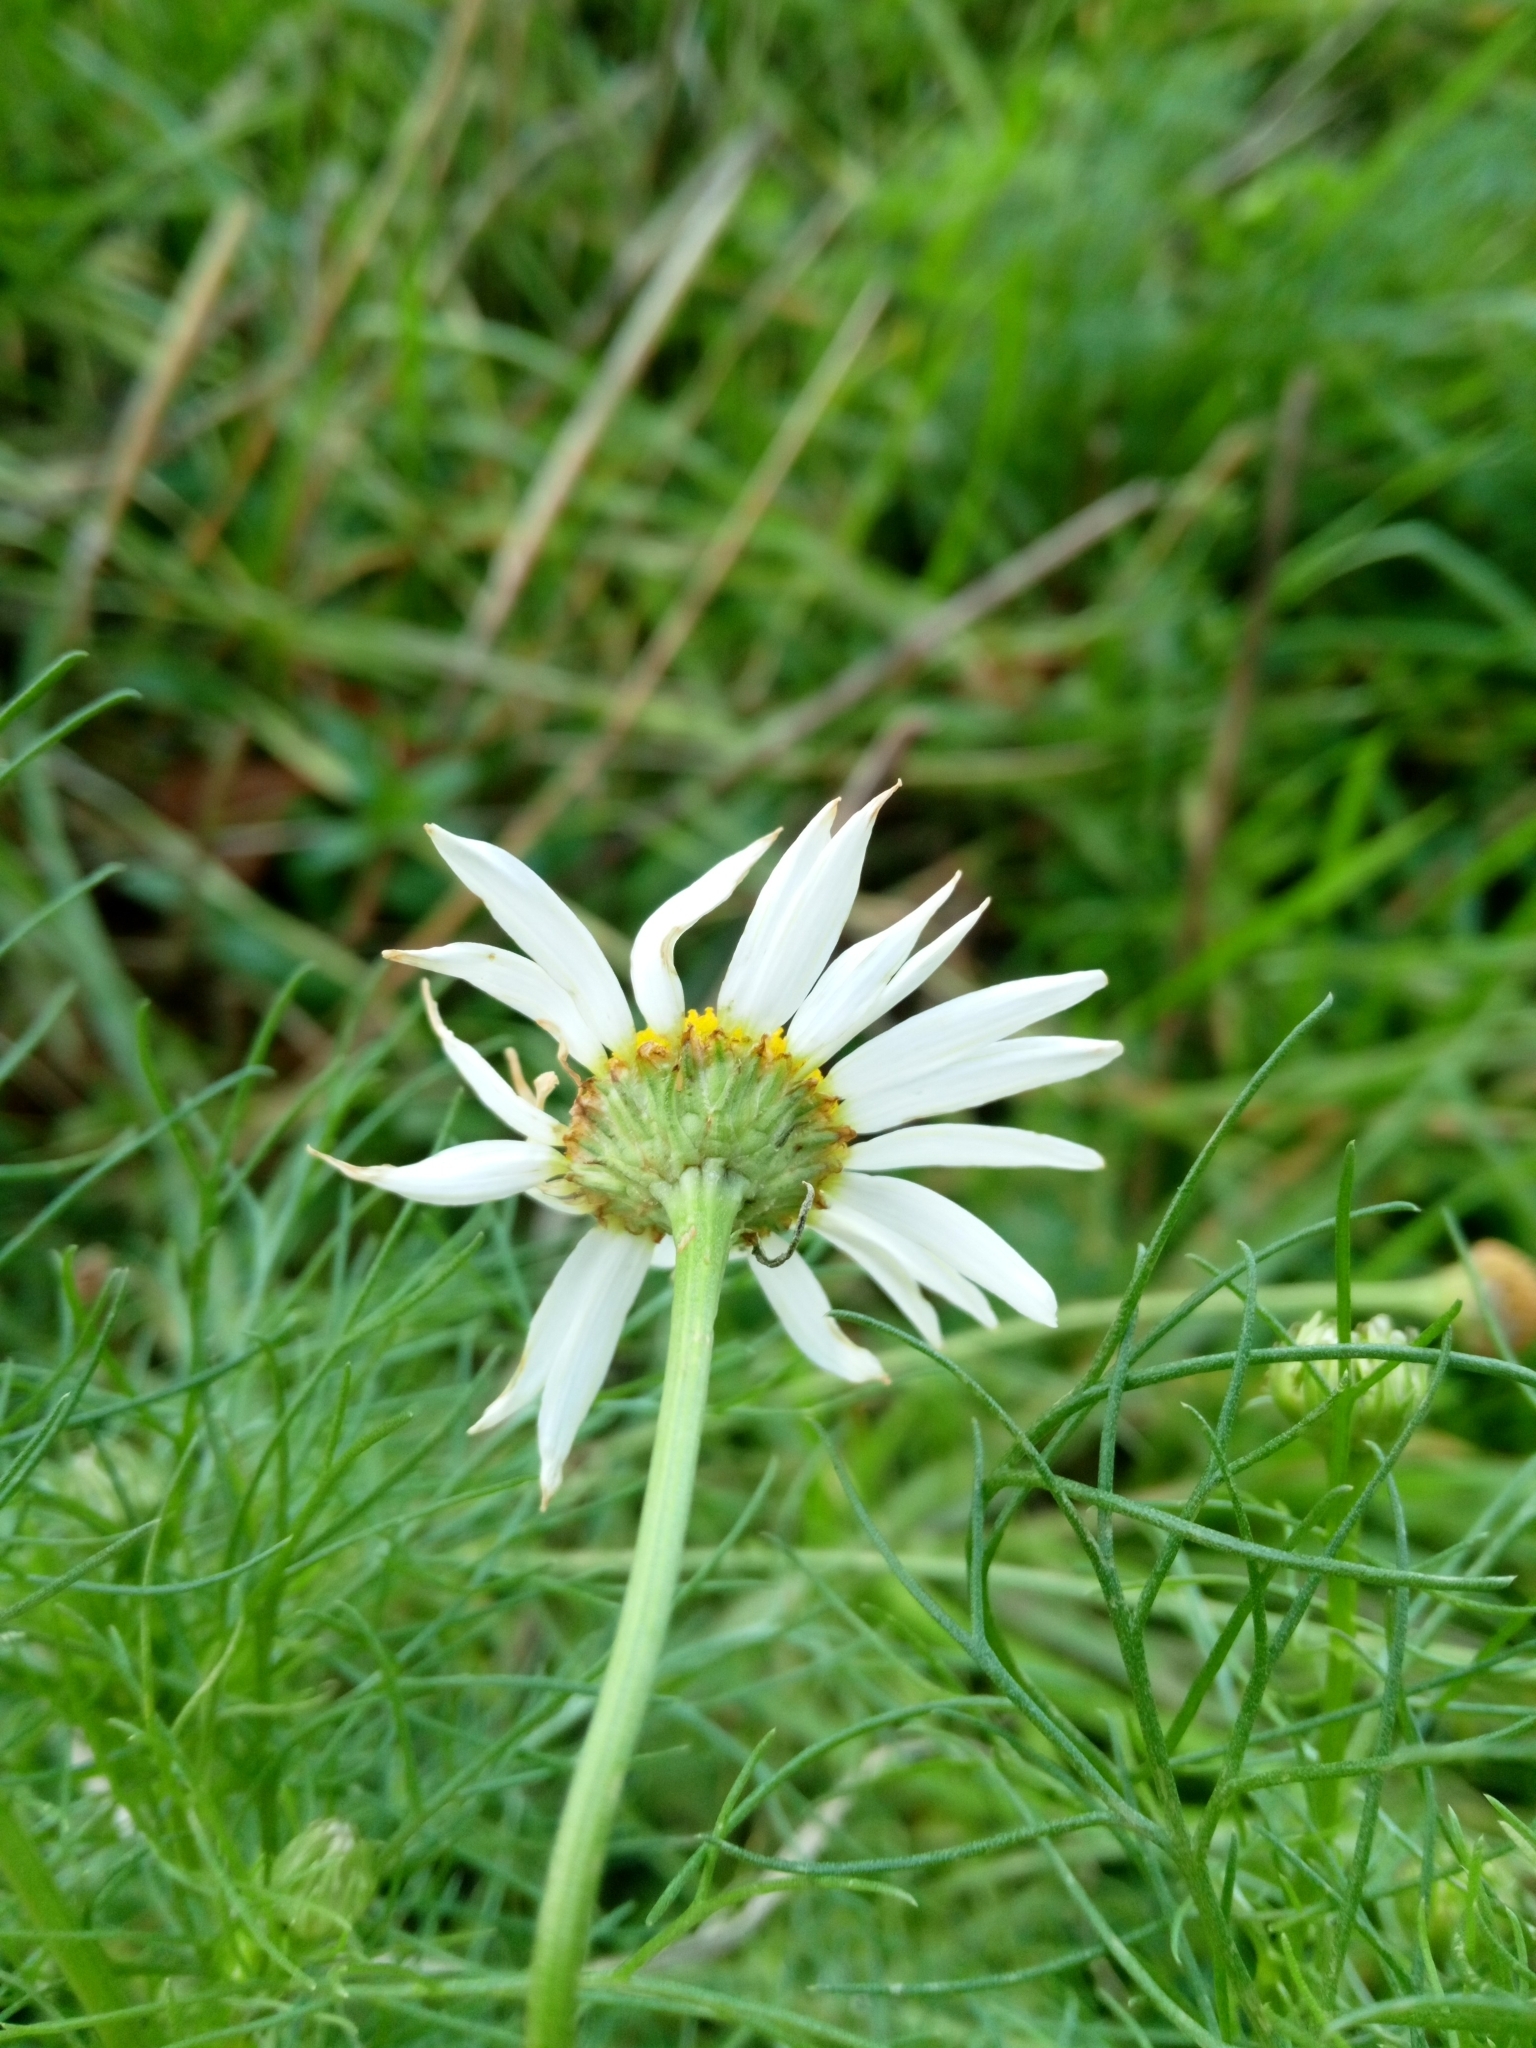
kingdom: Plantae
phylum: Tracheophyta
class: Magnoliopsida
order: Asterales
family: Asteraceae
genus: Tripleurospermum
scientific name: Tripleurospermum inodorum
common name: Scentless mayweed
